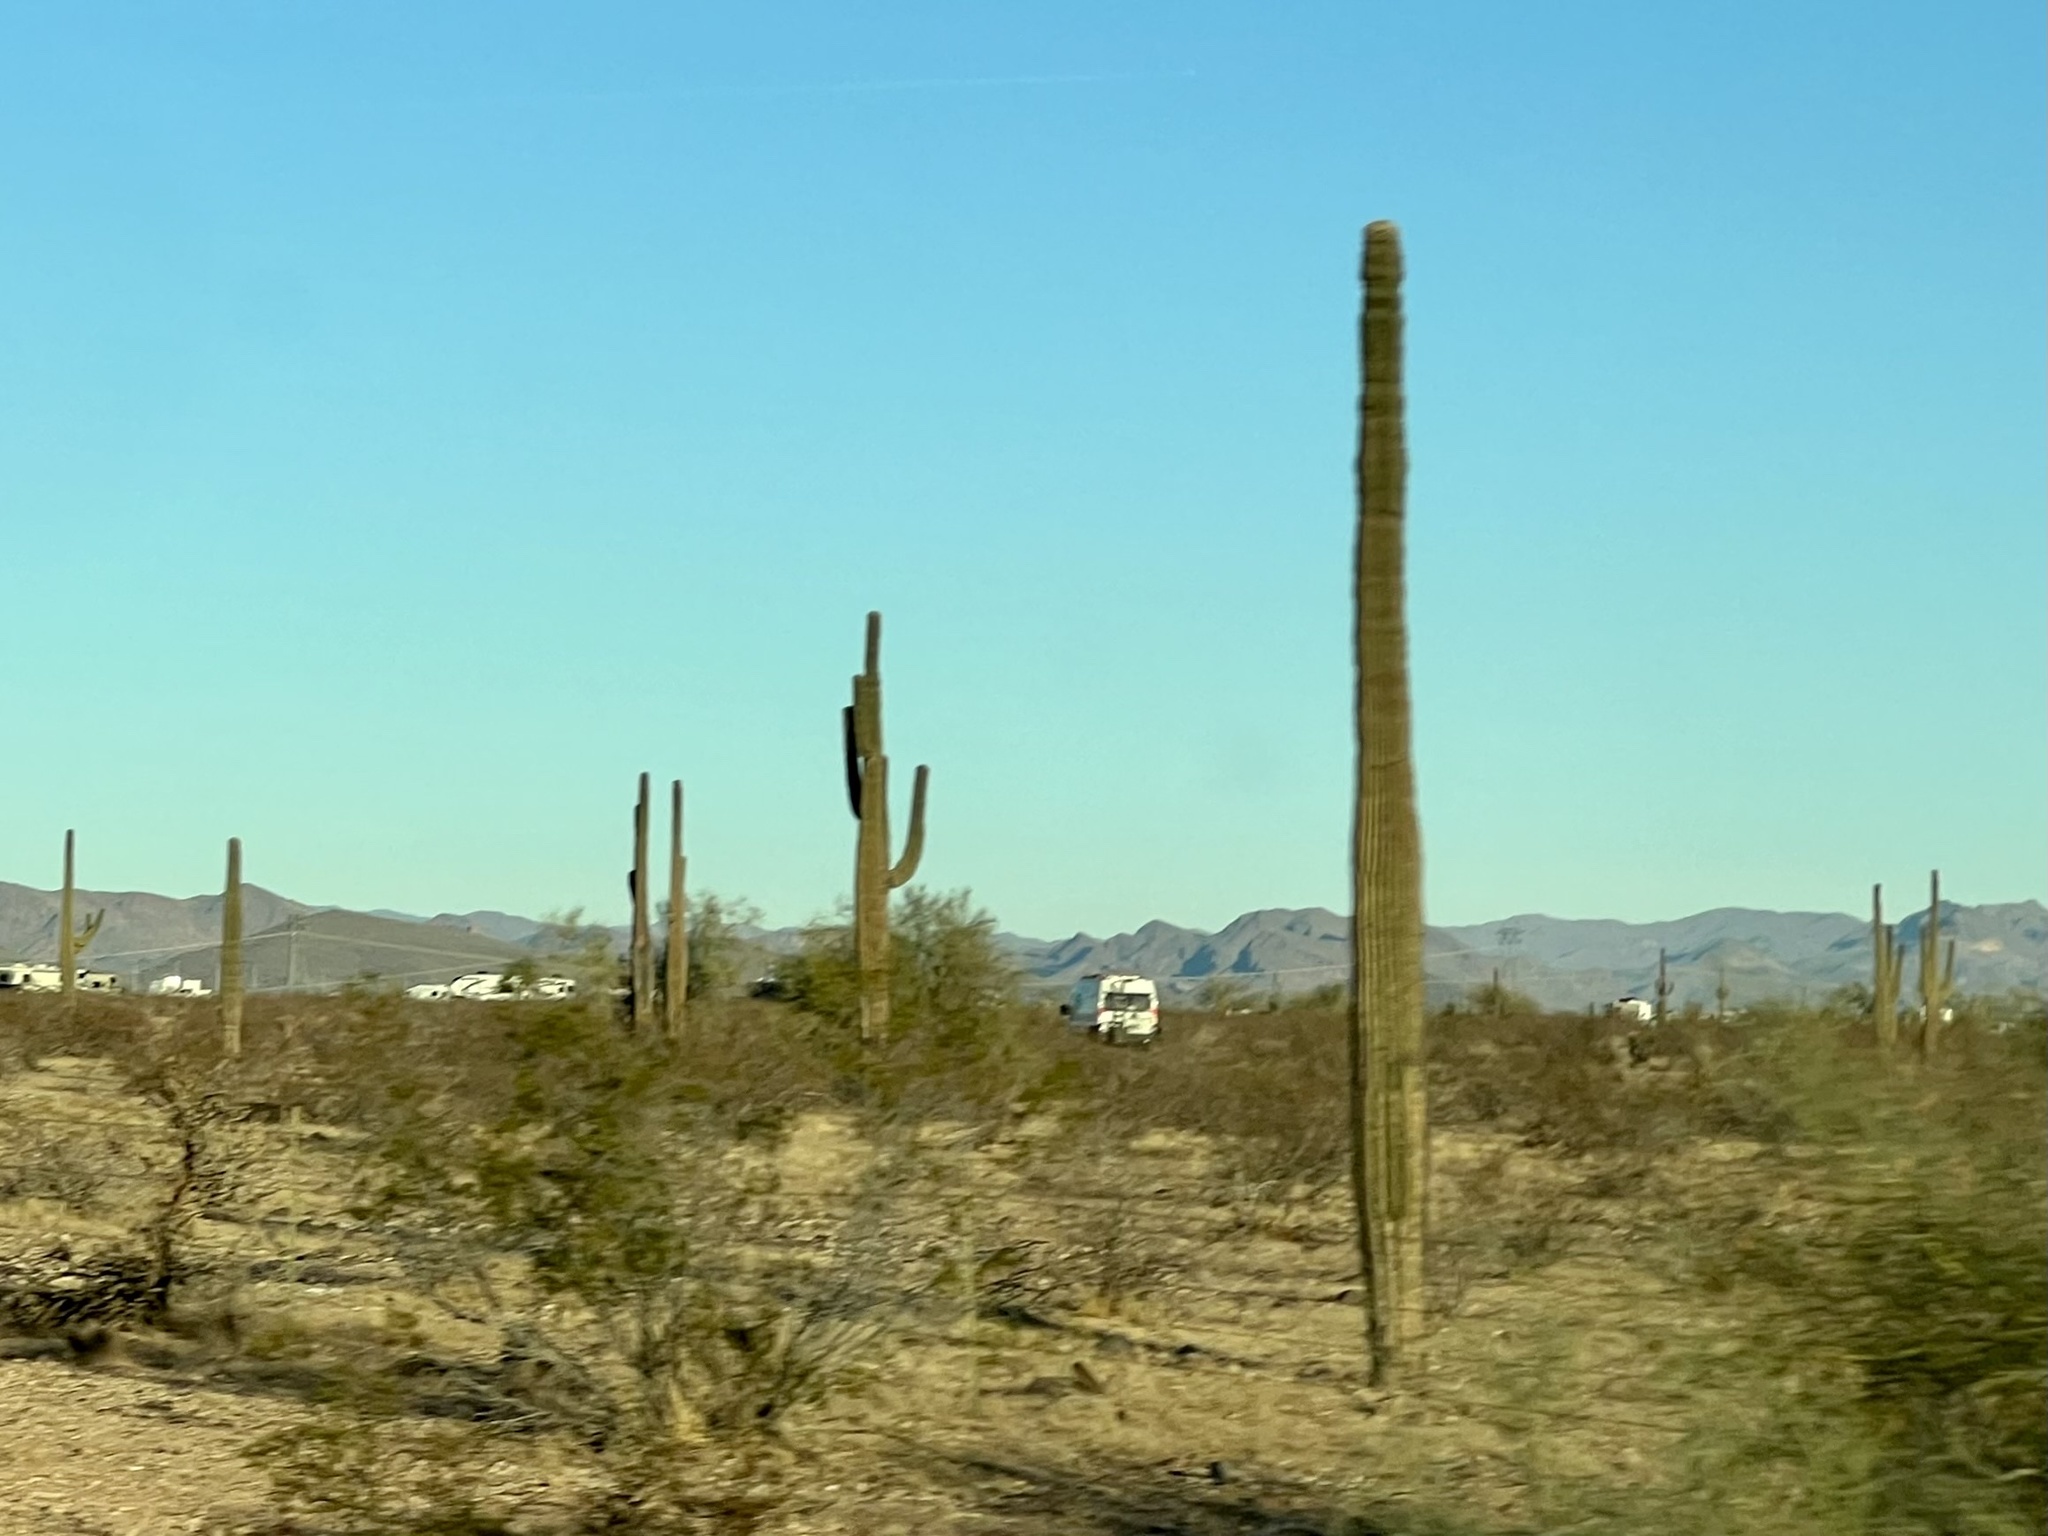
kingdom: Plantae
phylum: Tracheophyta
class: Magnoliopsida
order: Caryophyllales
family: Cactaceae
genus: Carnegiea
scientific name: Carnegiea gigantea
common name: Saguaro
